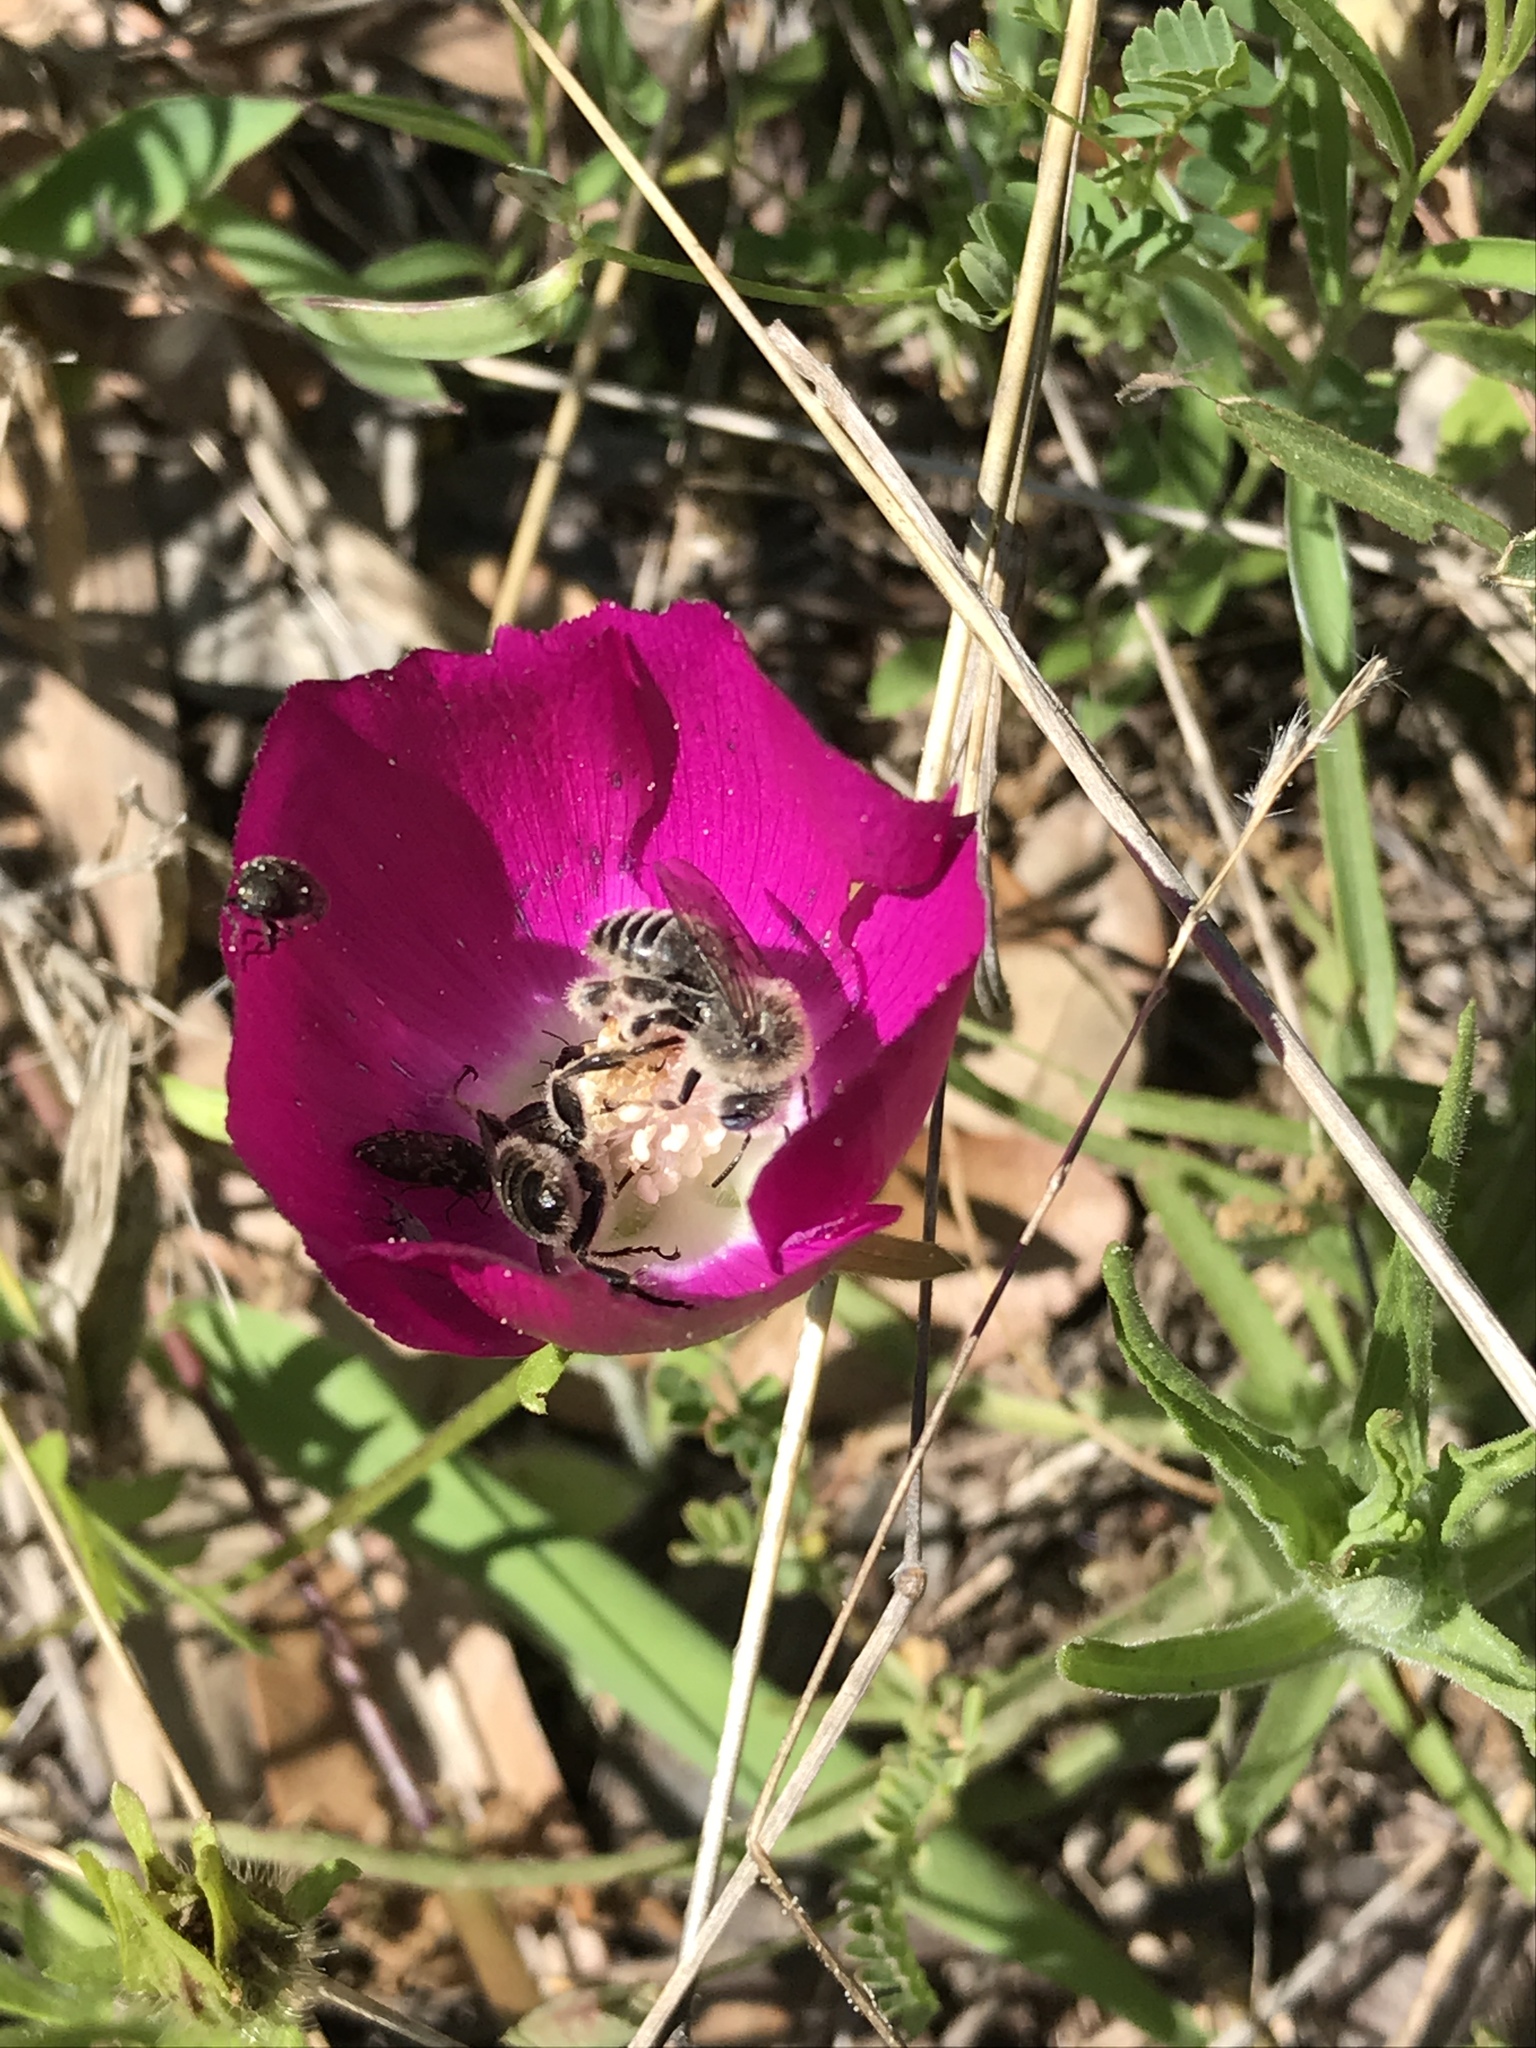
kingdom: Plantae
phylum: Tracheophyta
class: Magnoliopsida
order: Malvales
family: Malvaceae
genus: Callirhoe
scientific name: Callirhoe involucrata
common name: Purple poppy-mallow
